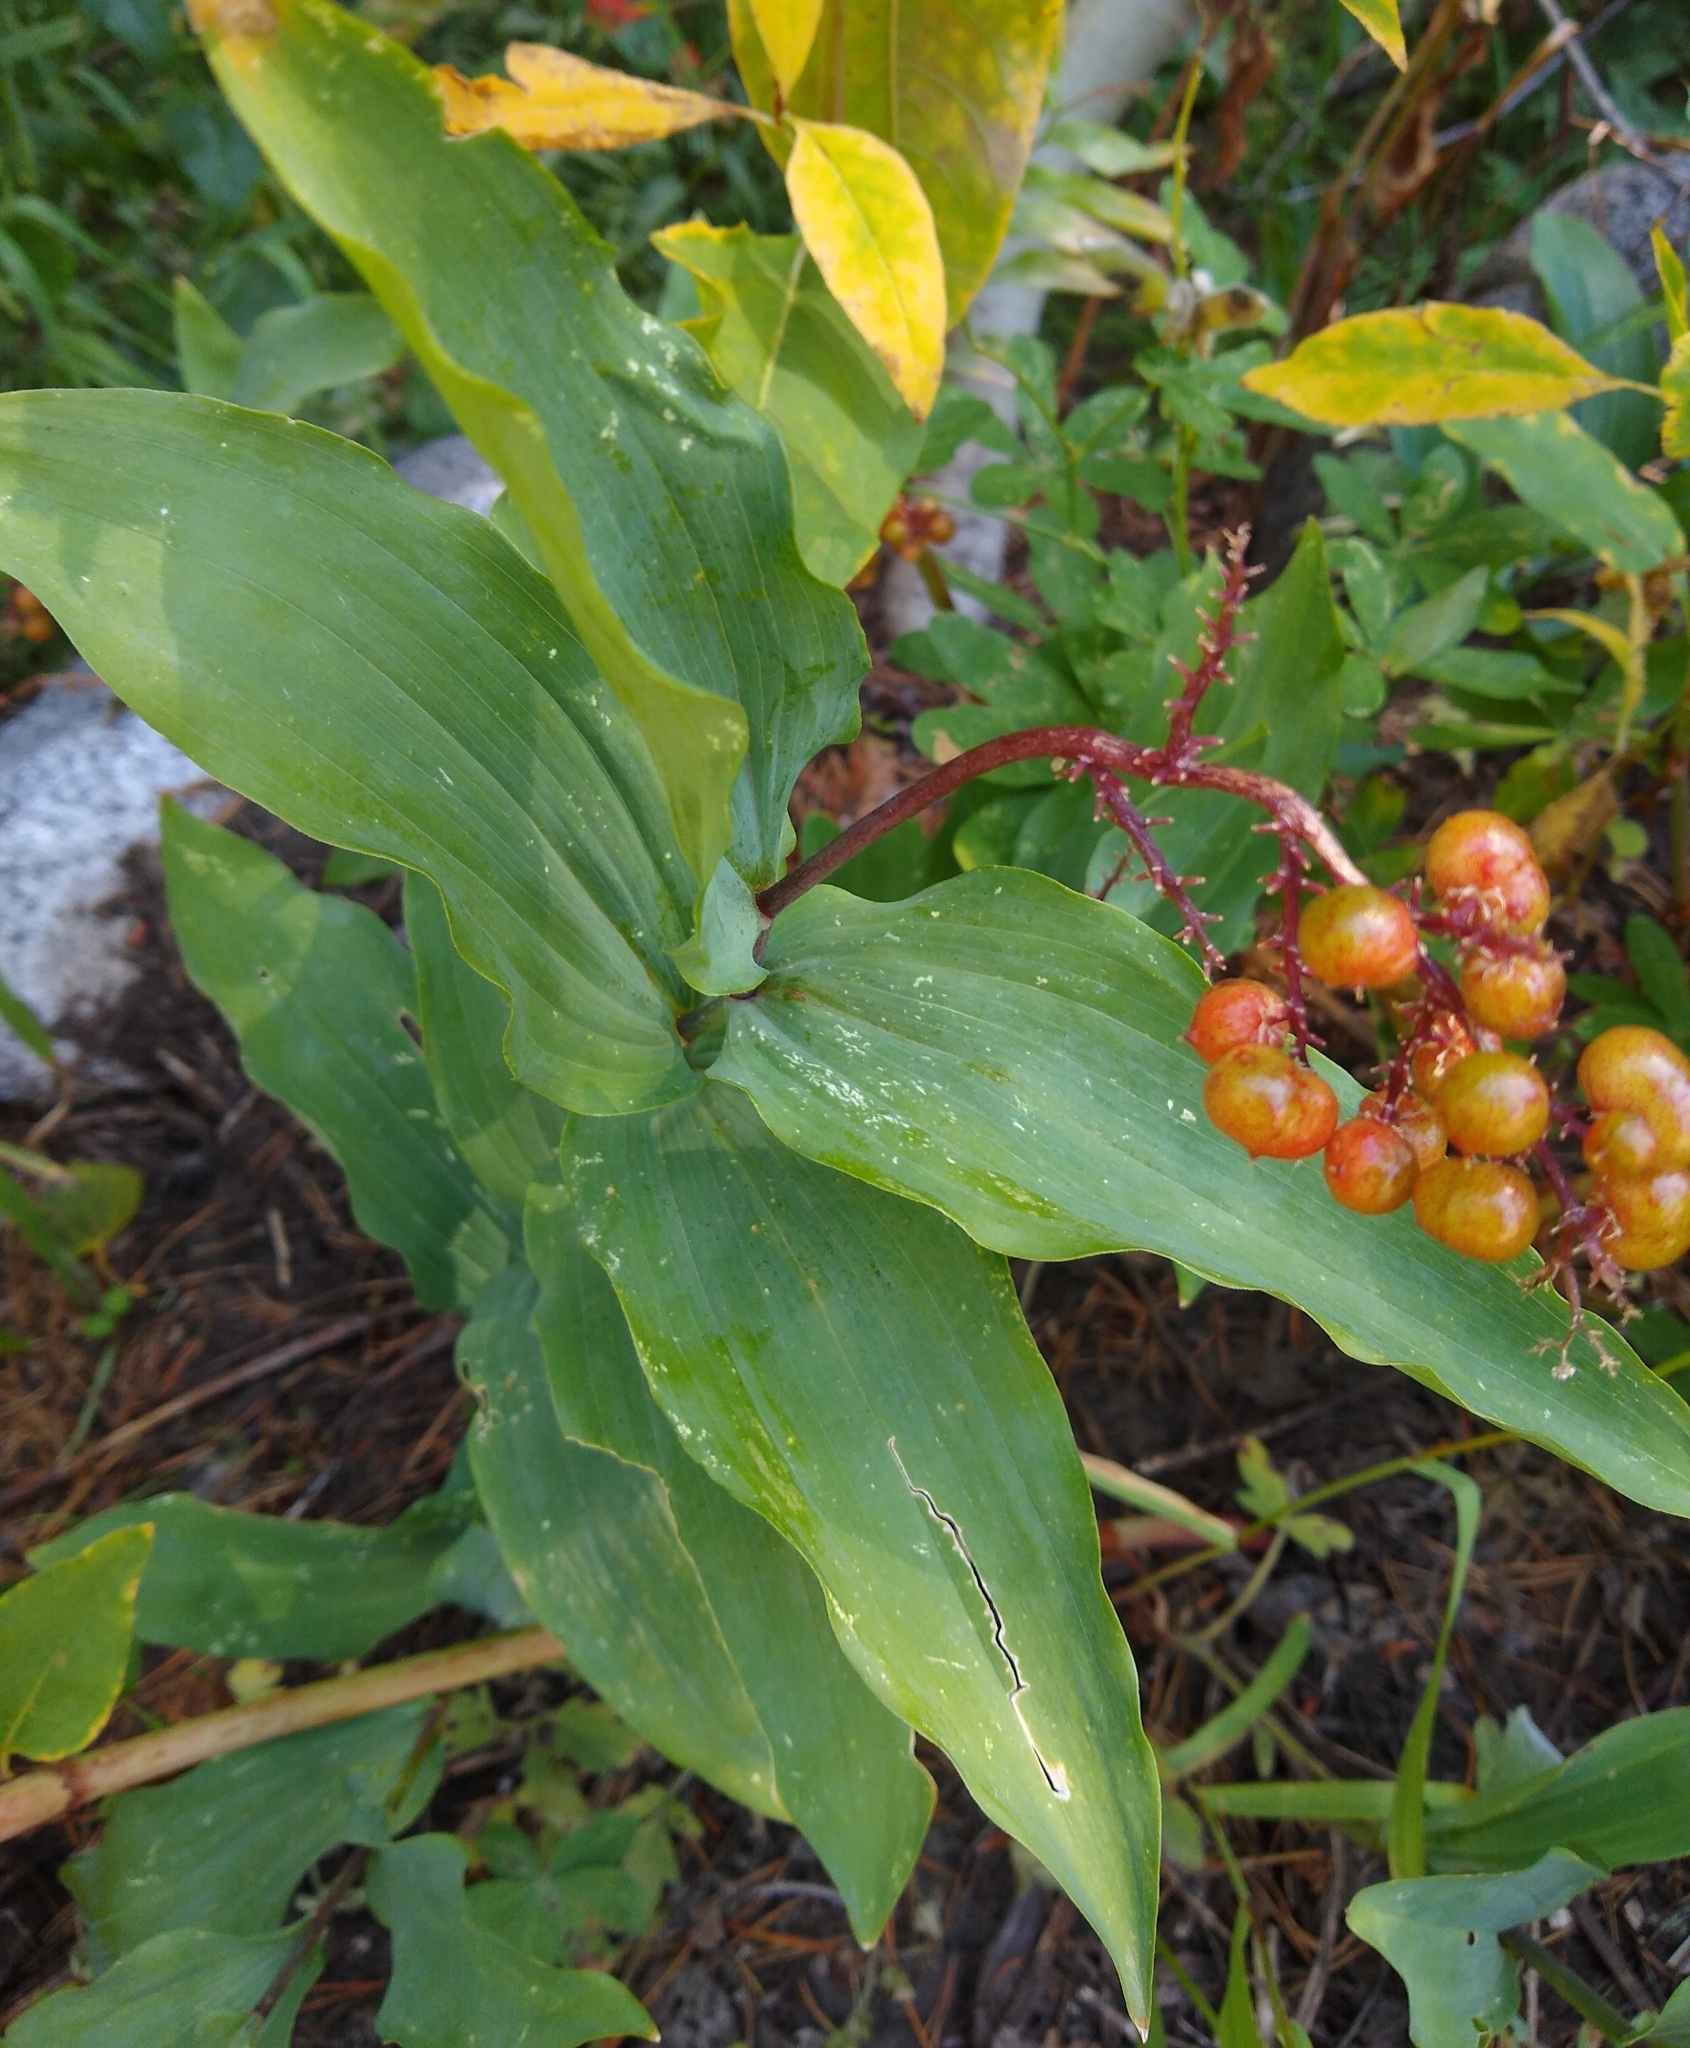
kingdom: Plantae
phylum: Tracheophyta
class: Liliopsida
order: Asparagales
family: Asparagaceae
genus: Maianthemum
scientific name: Maianthemum racemosum
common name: False spikenard
